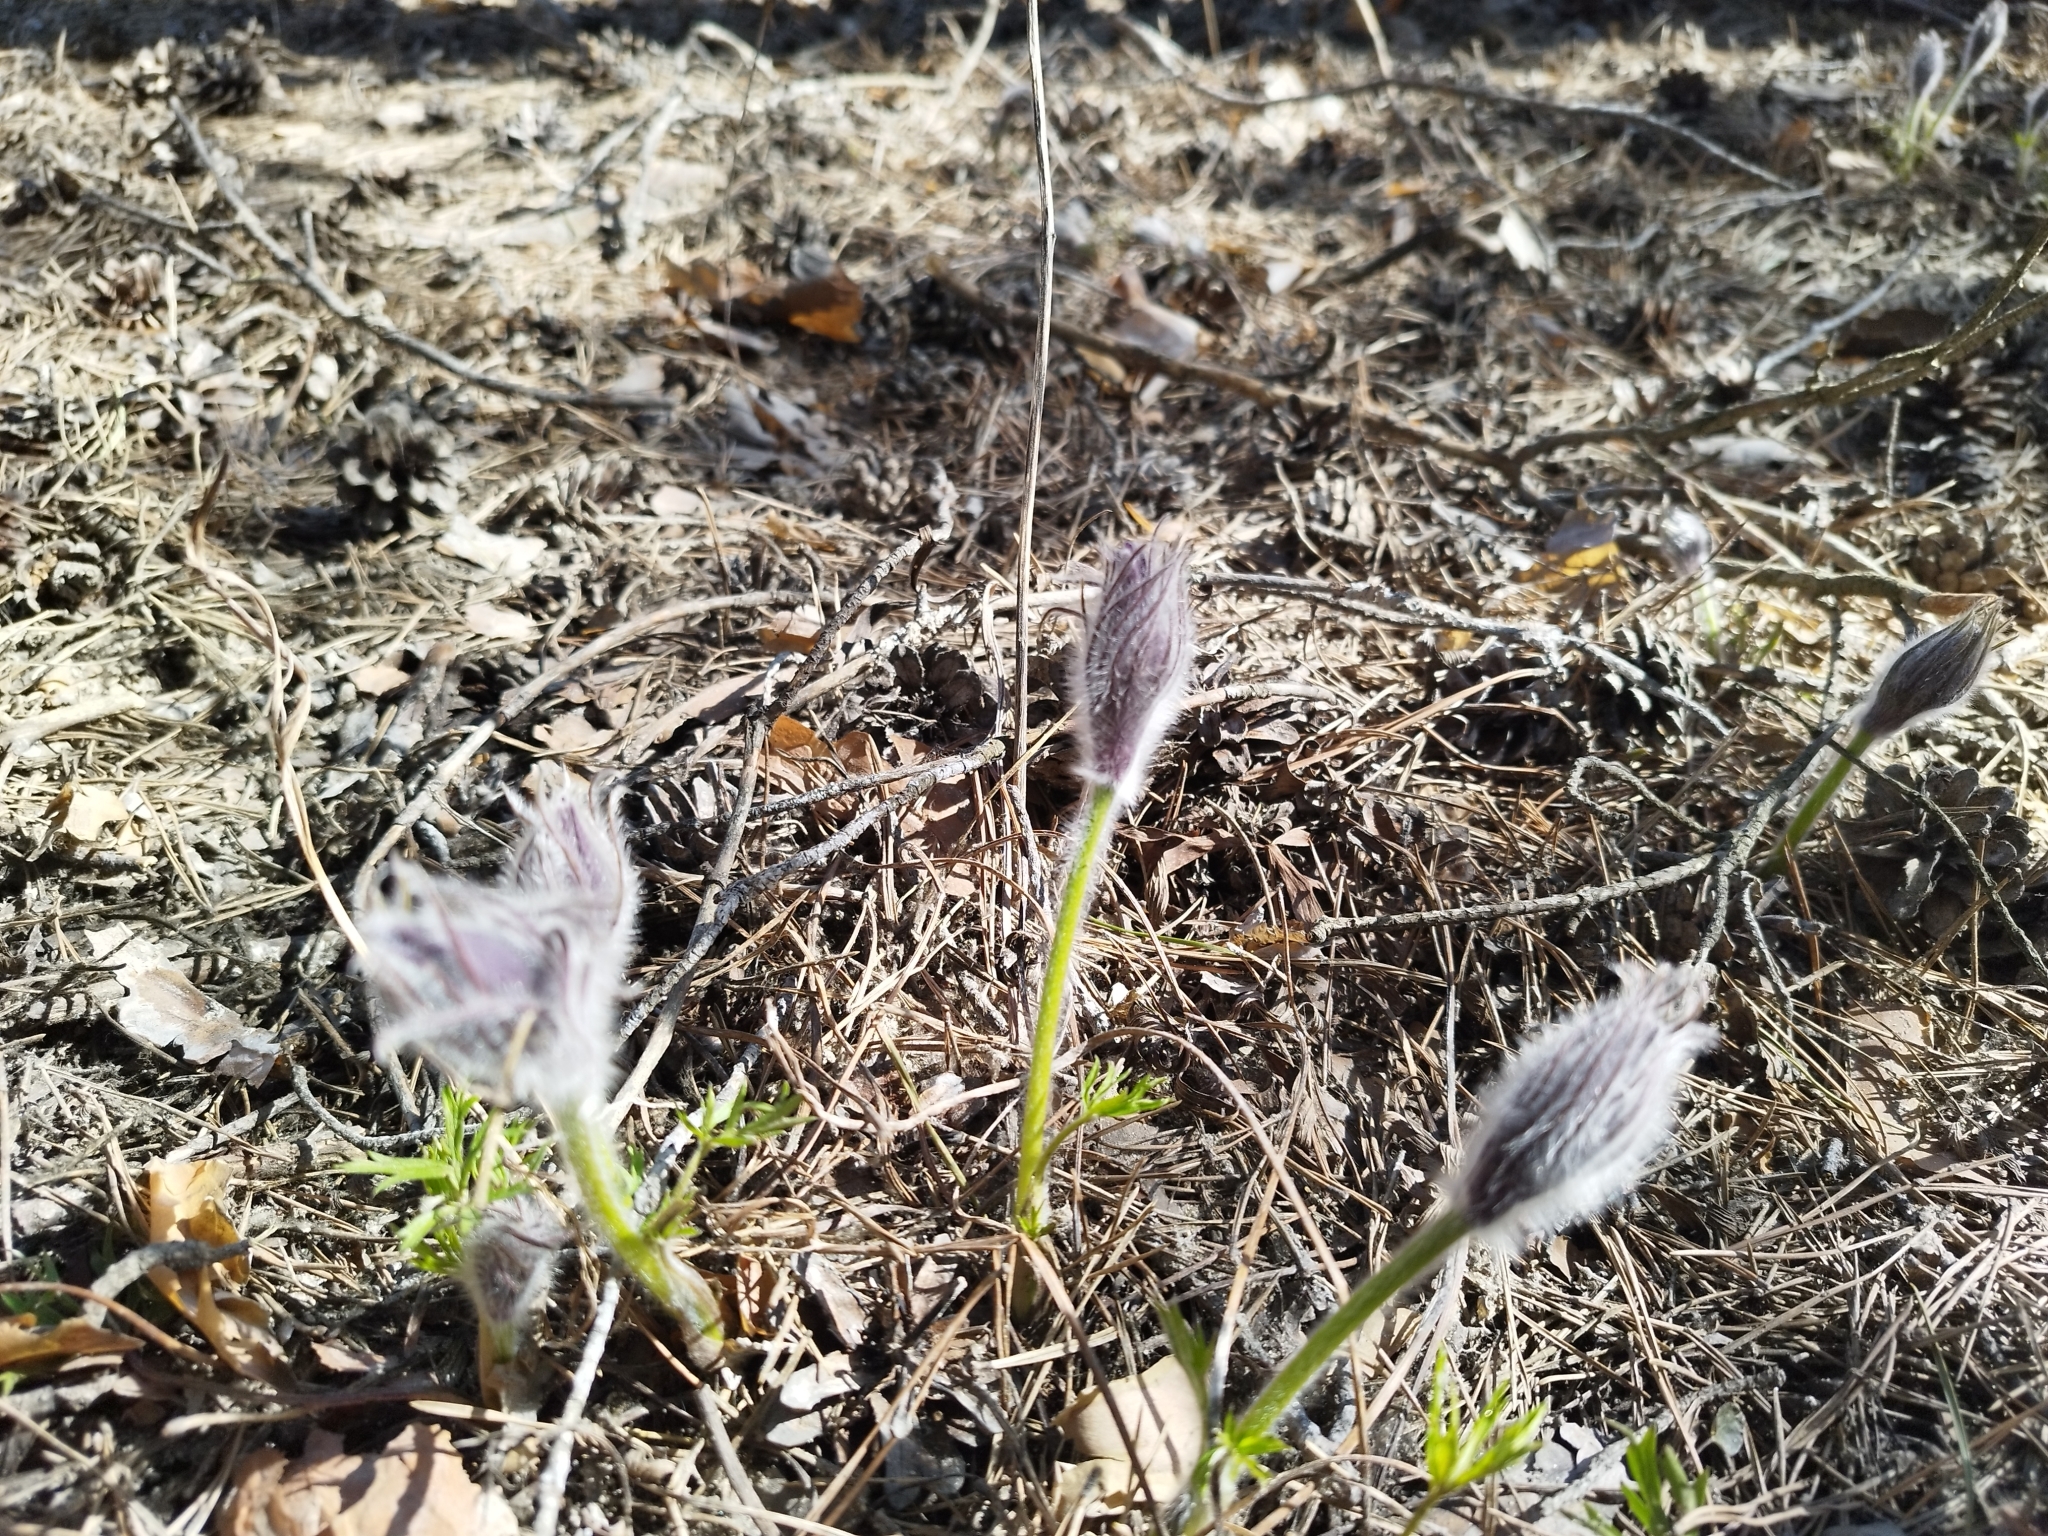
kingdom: Plantae
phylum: Tracheophyta
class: Magnoliopsida
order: Ranunculales
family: Ranunculaceae
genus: Pulsatilla
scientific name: Pulsatilla patens
